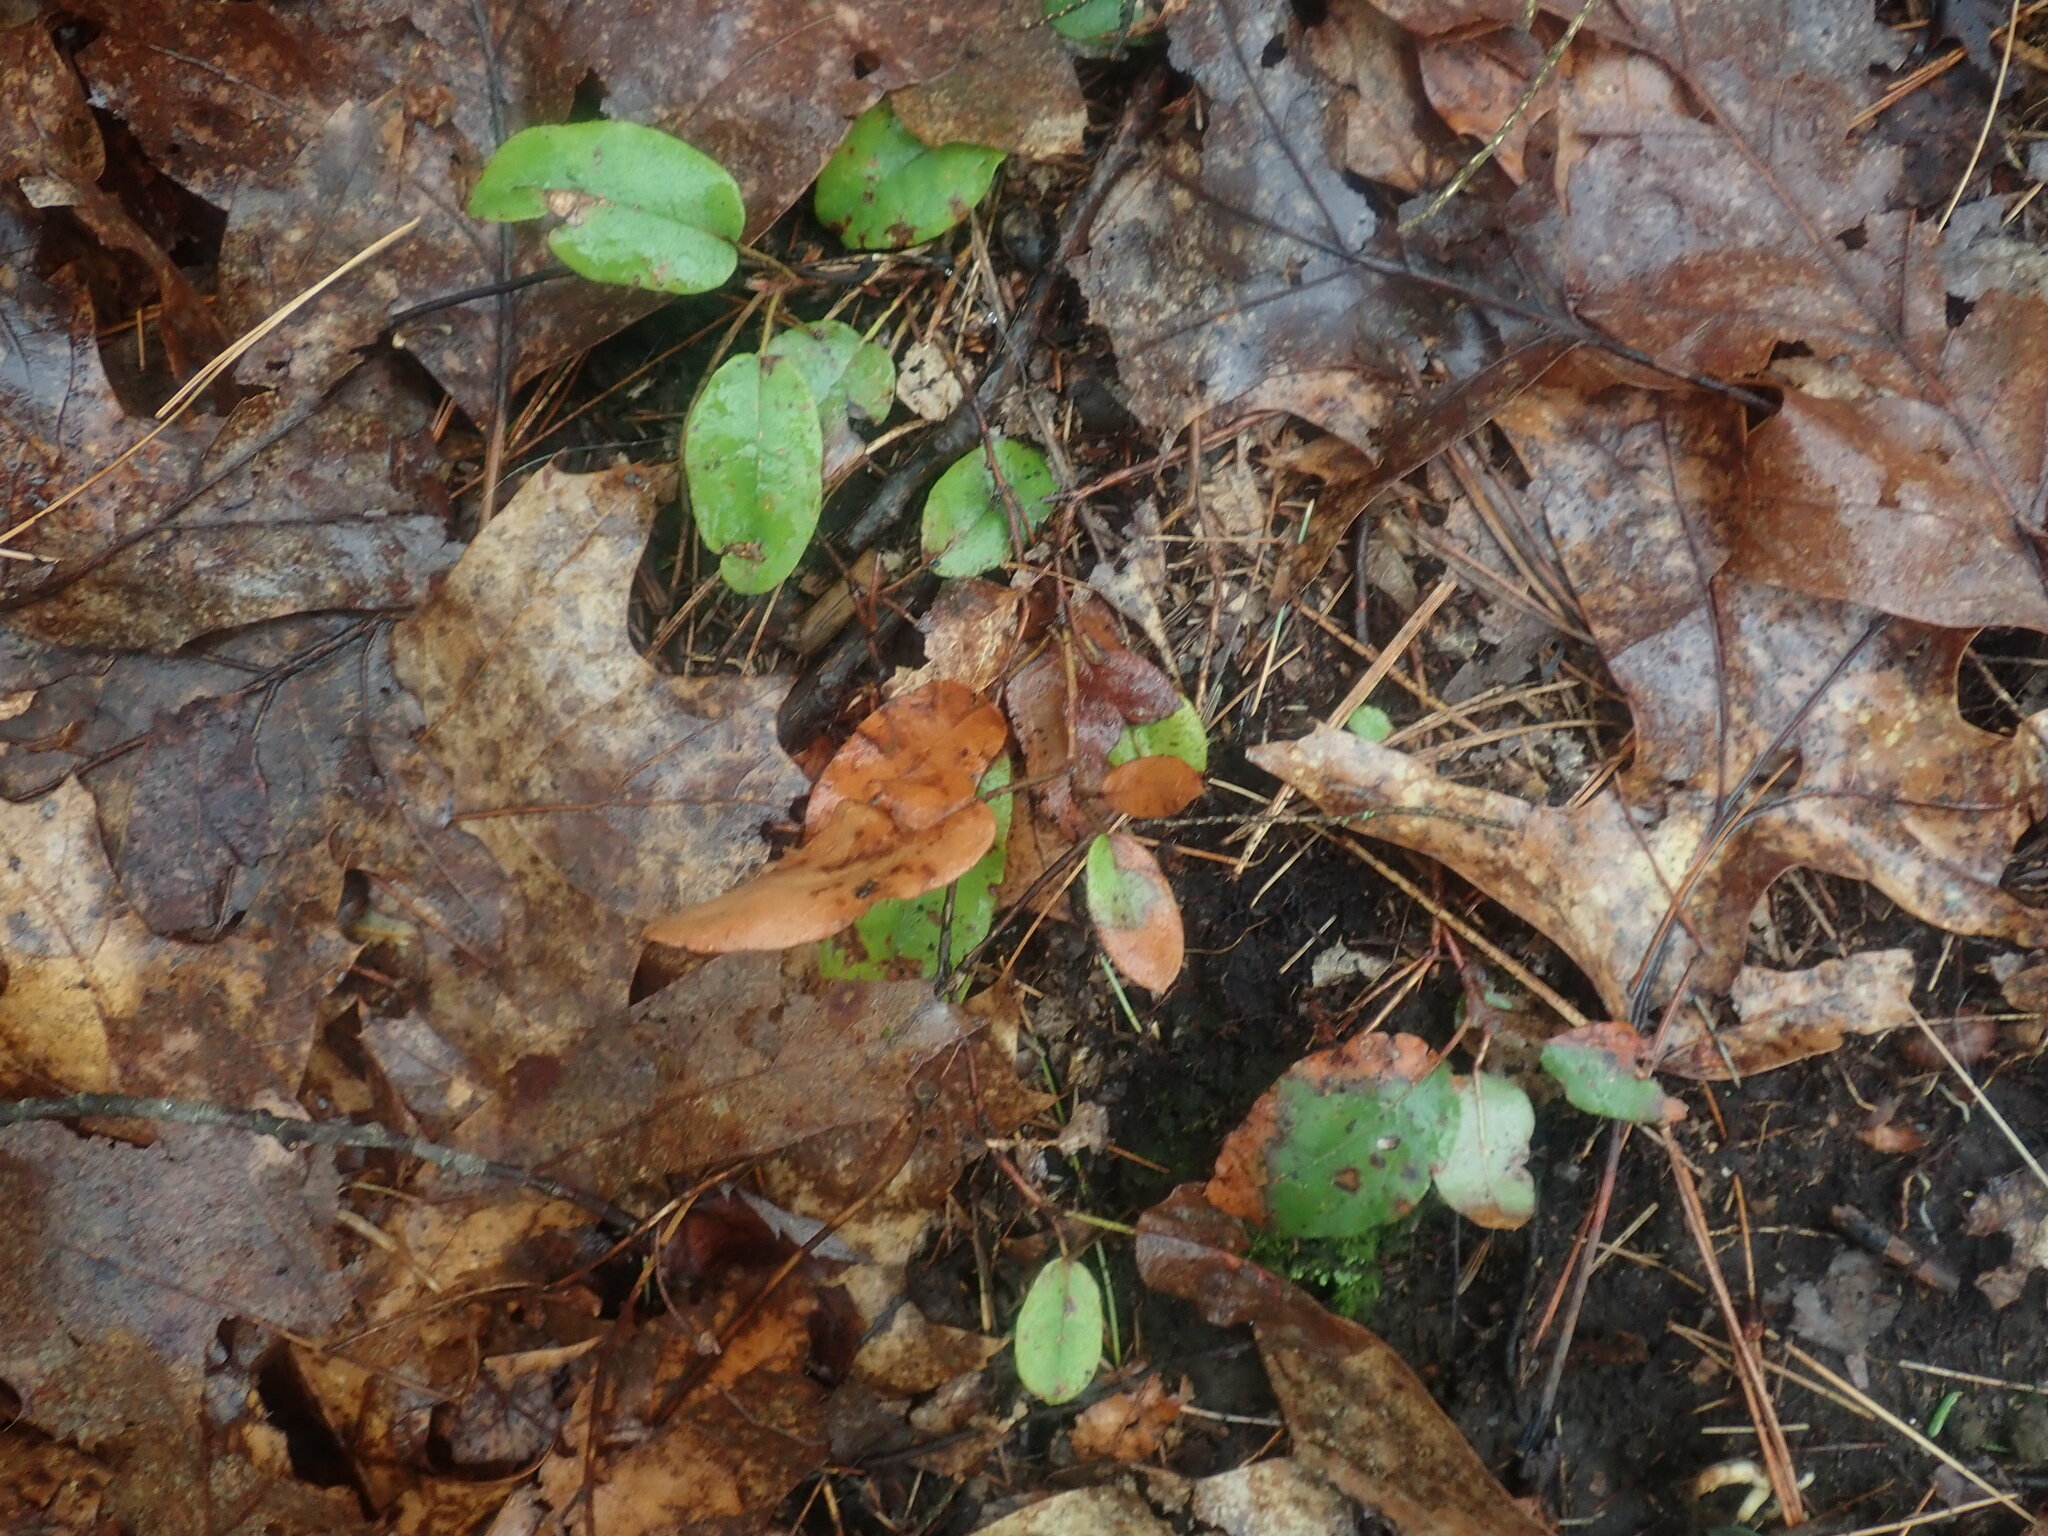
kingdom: Plantae
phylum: Tracheophyta
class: Magnoliopsida
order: Ericales
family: Ericaceae
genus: Epigaea
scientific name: Epigaea repens
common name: Gravelroot
